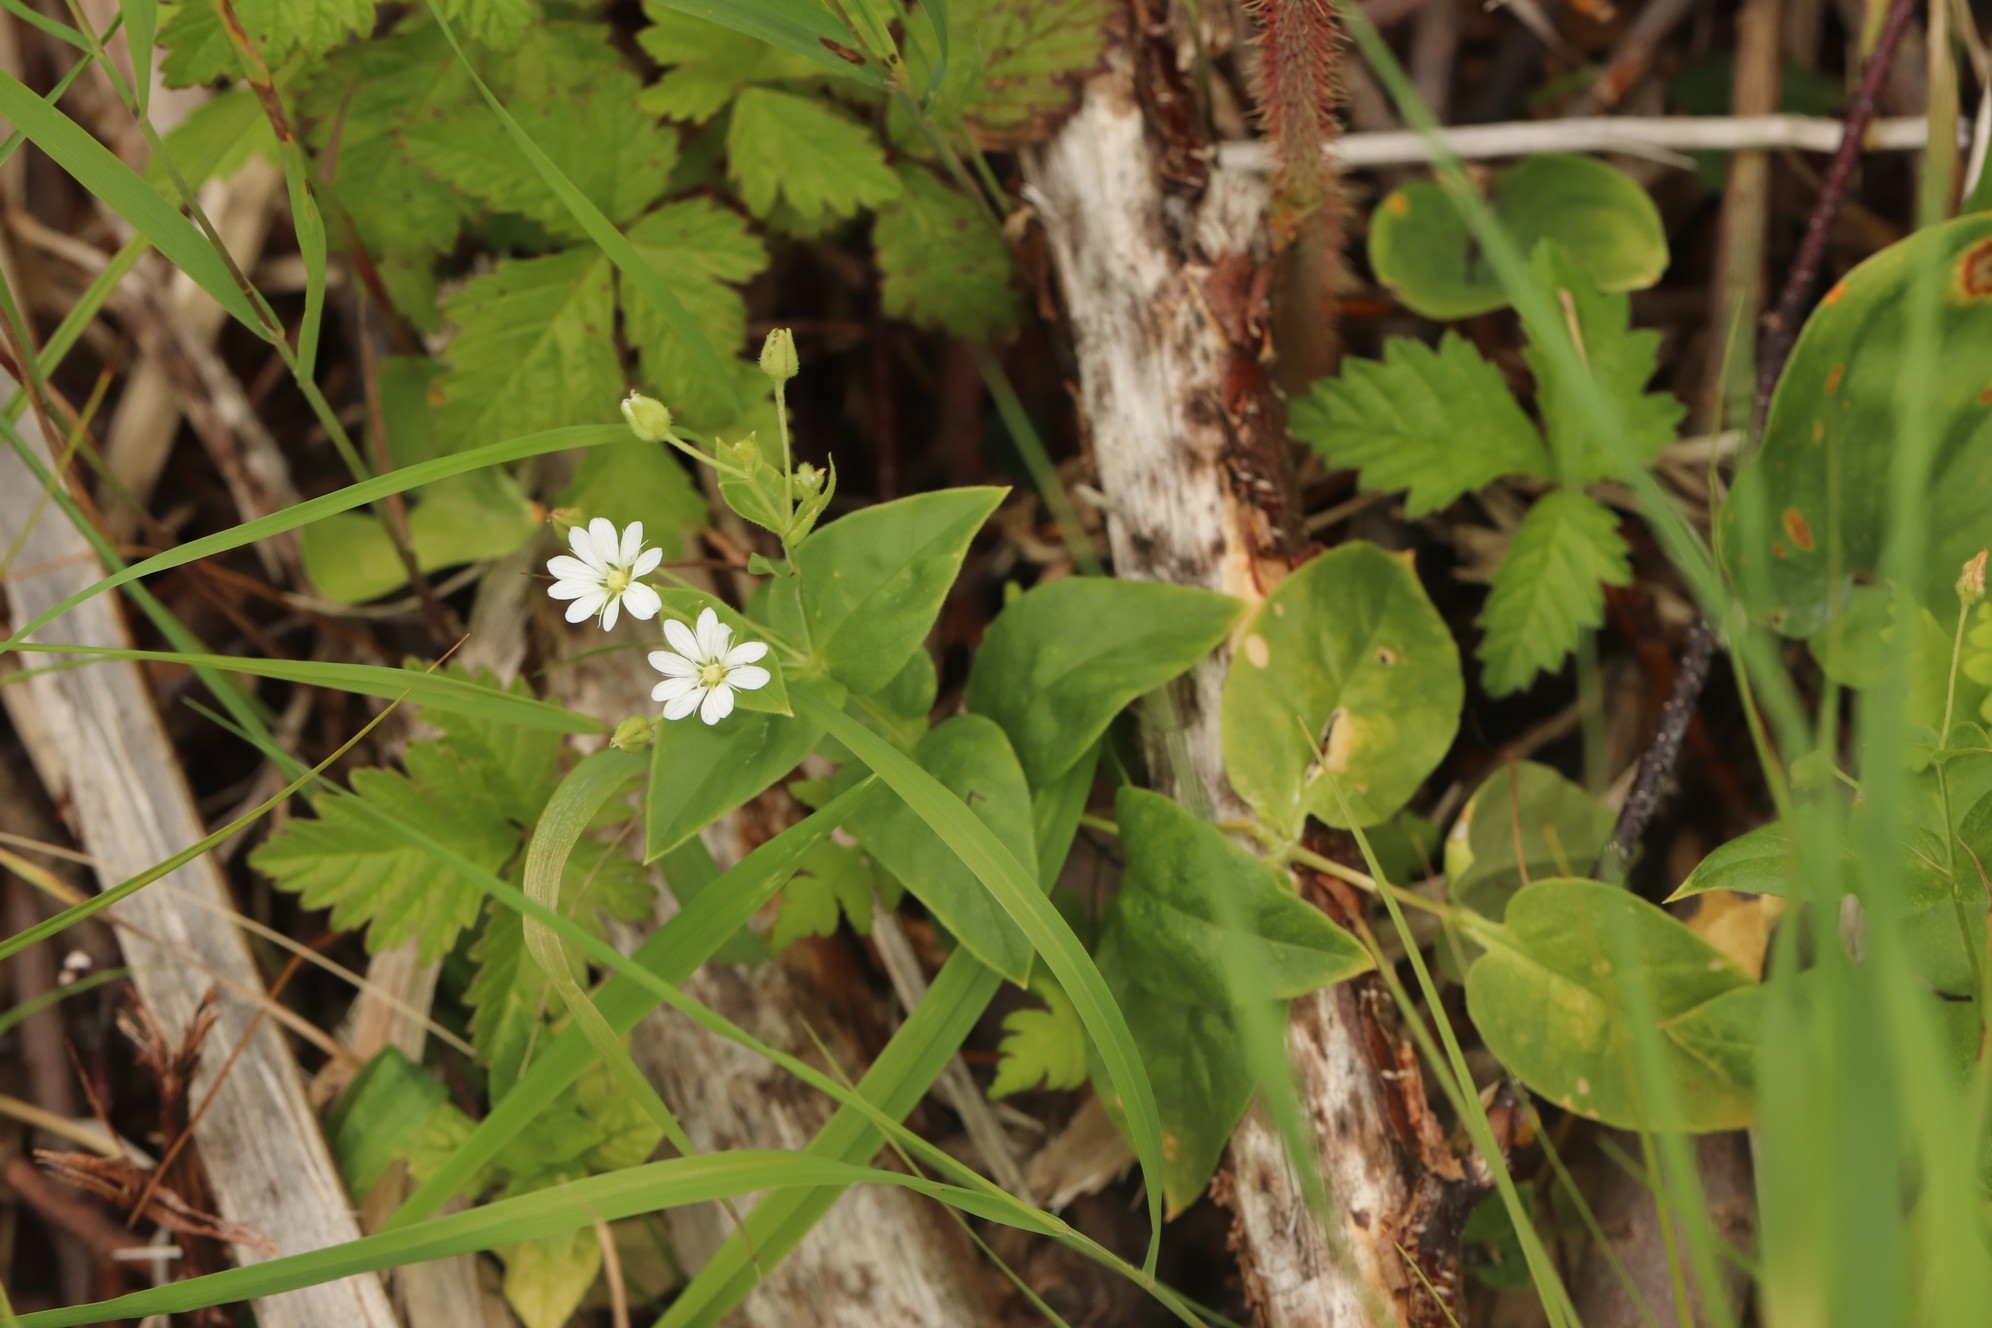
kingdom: Plantae
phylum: Tracheophyta
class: Magnoliopsida
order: Caryophyllales
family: Caryophyllaceae
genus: Stellaria
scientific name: Stellaria bungeana
